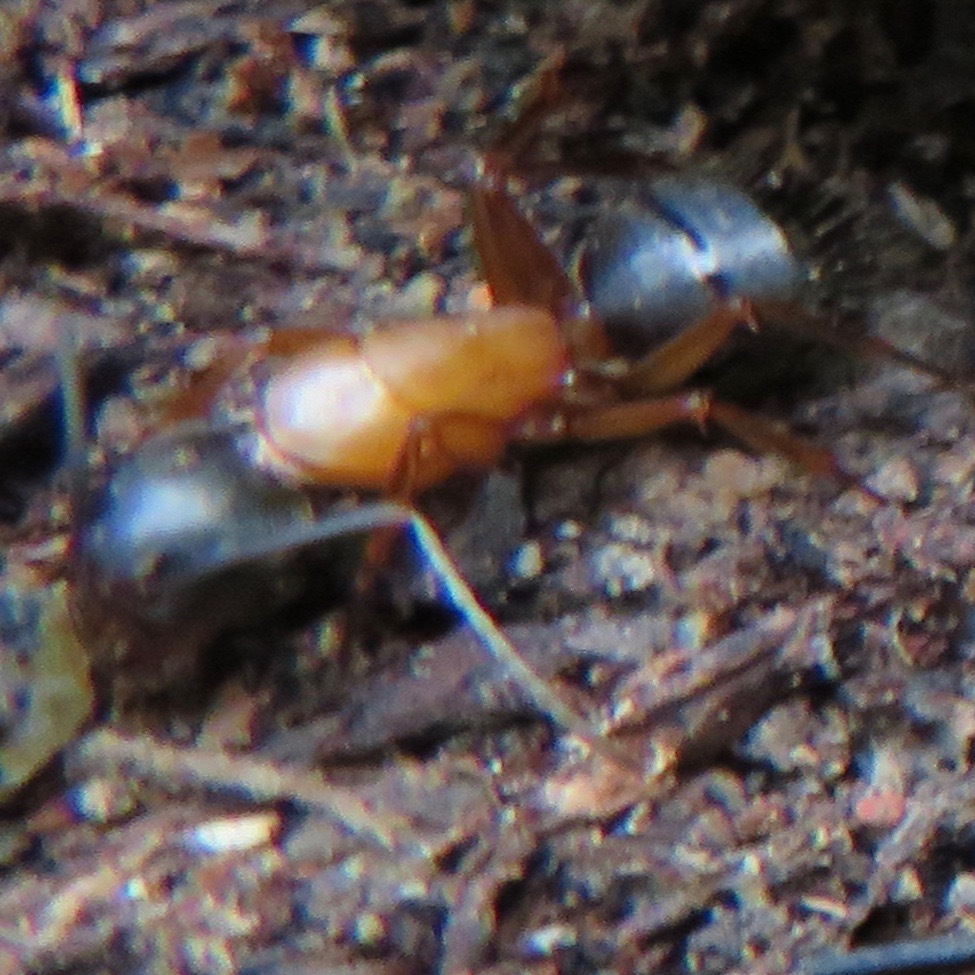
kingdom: Animalia
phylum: Arthropoda
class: Insecta
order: Hymenoptera
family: Formicidae
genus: Camponotus
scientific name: Camponotus vicinus
